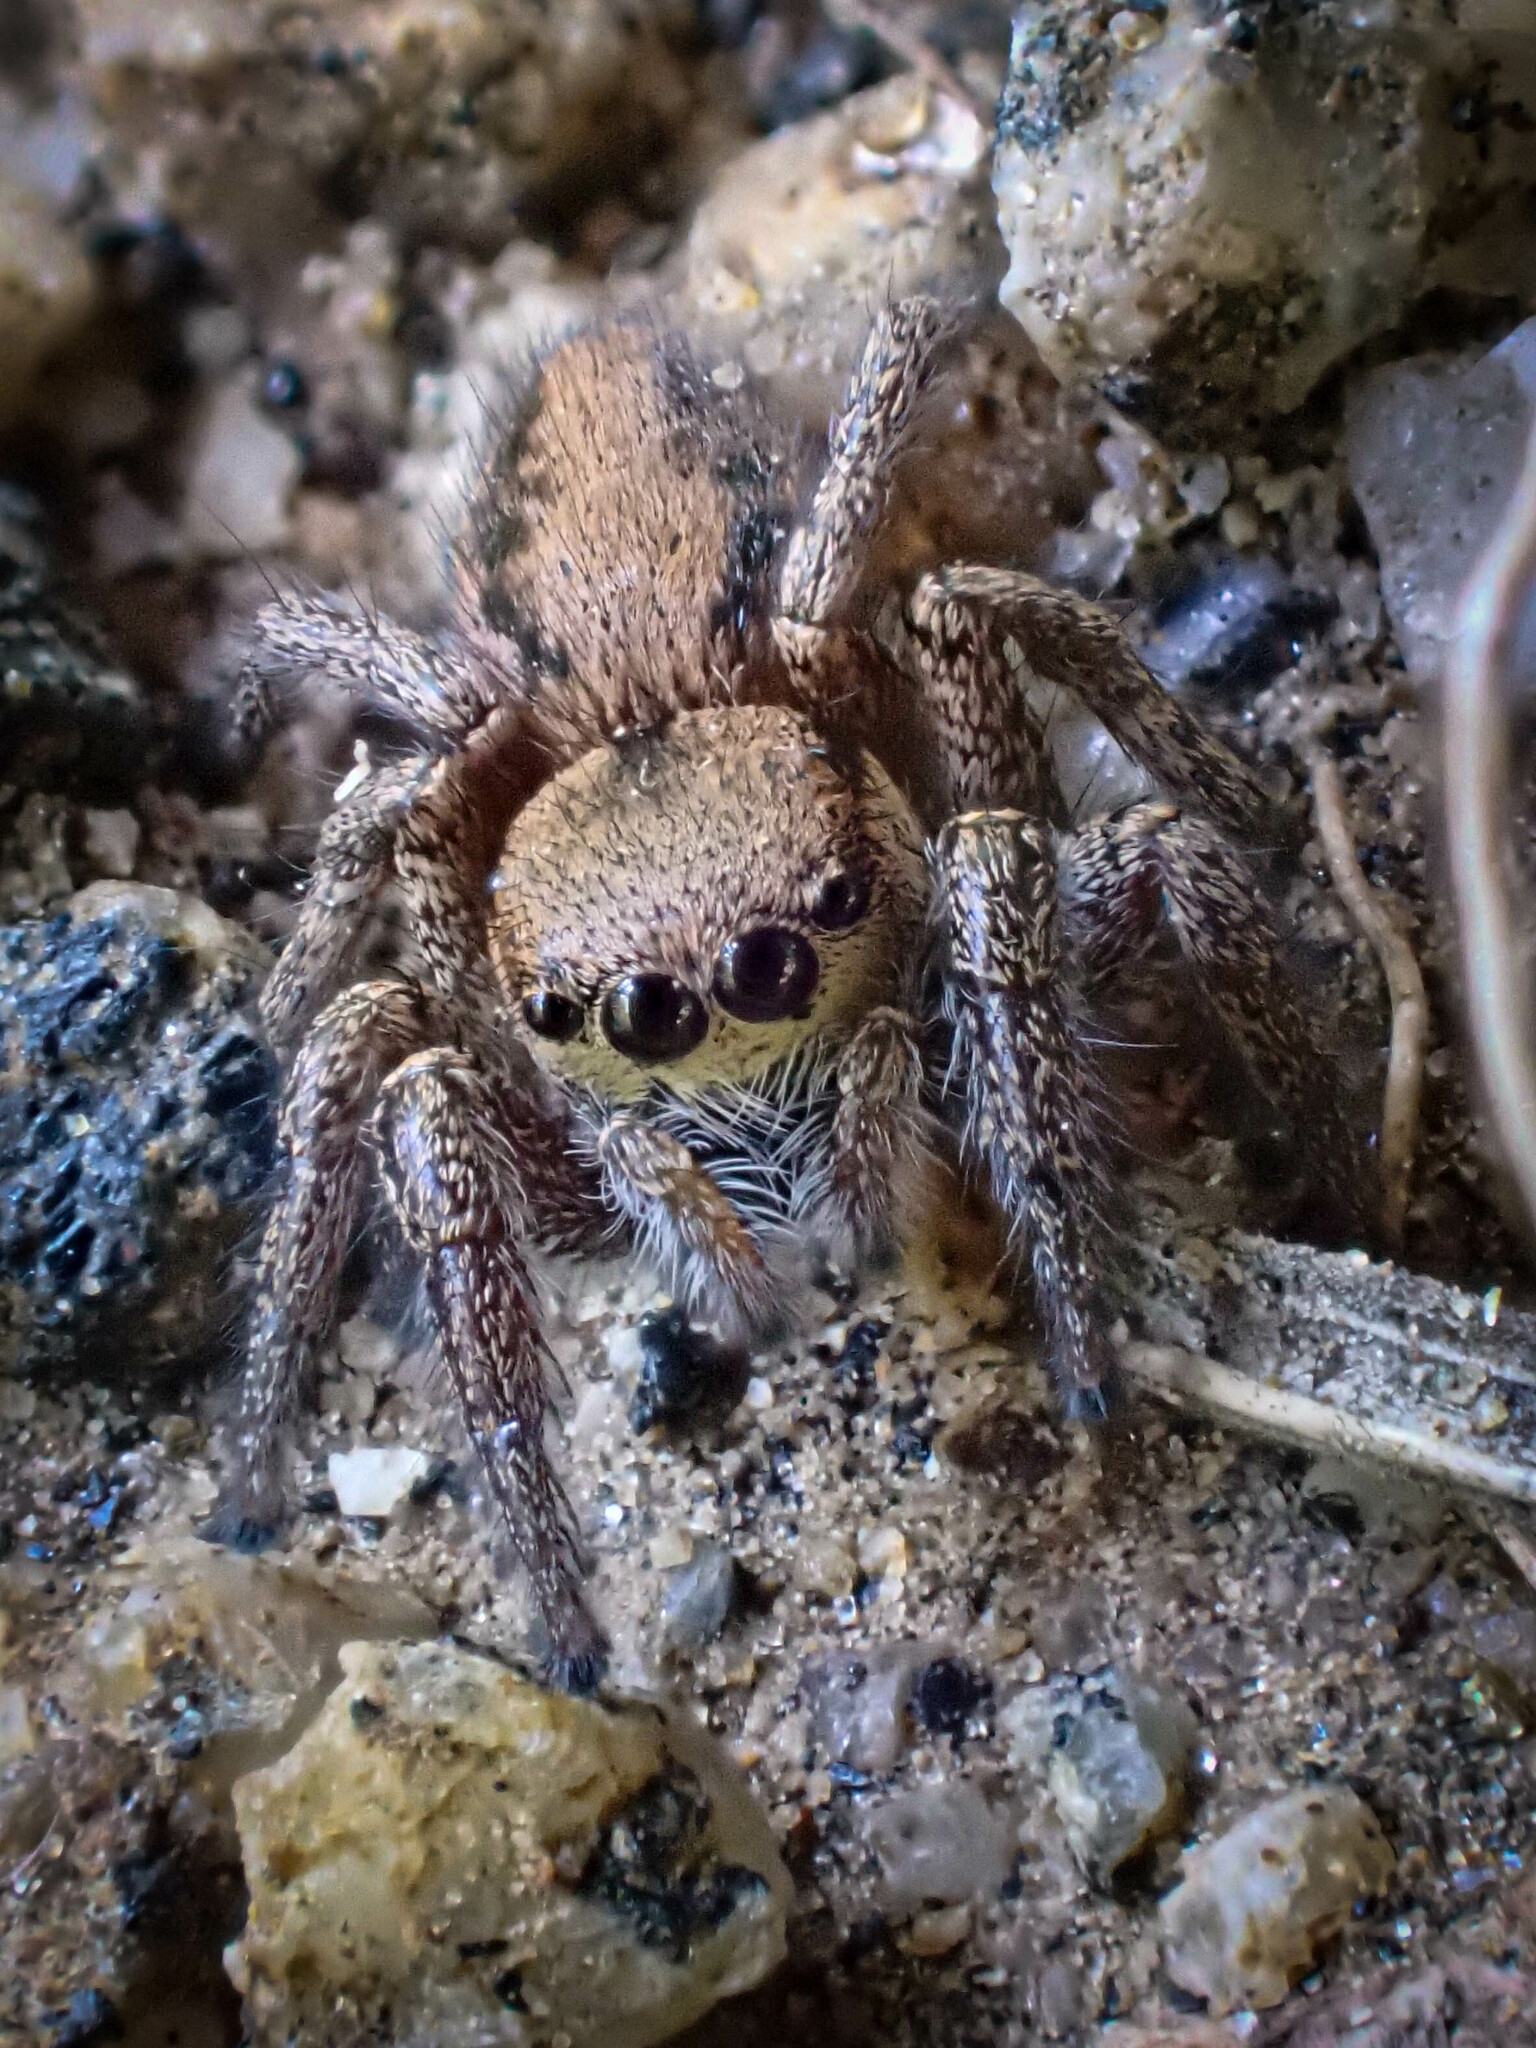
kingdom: Animalia
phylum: Arthropoda
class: Arachnida
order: Araneae
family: Salticidae
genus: Habronattus
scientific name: Habronattus californicus
